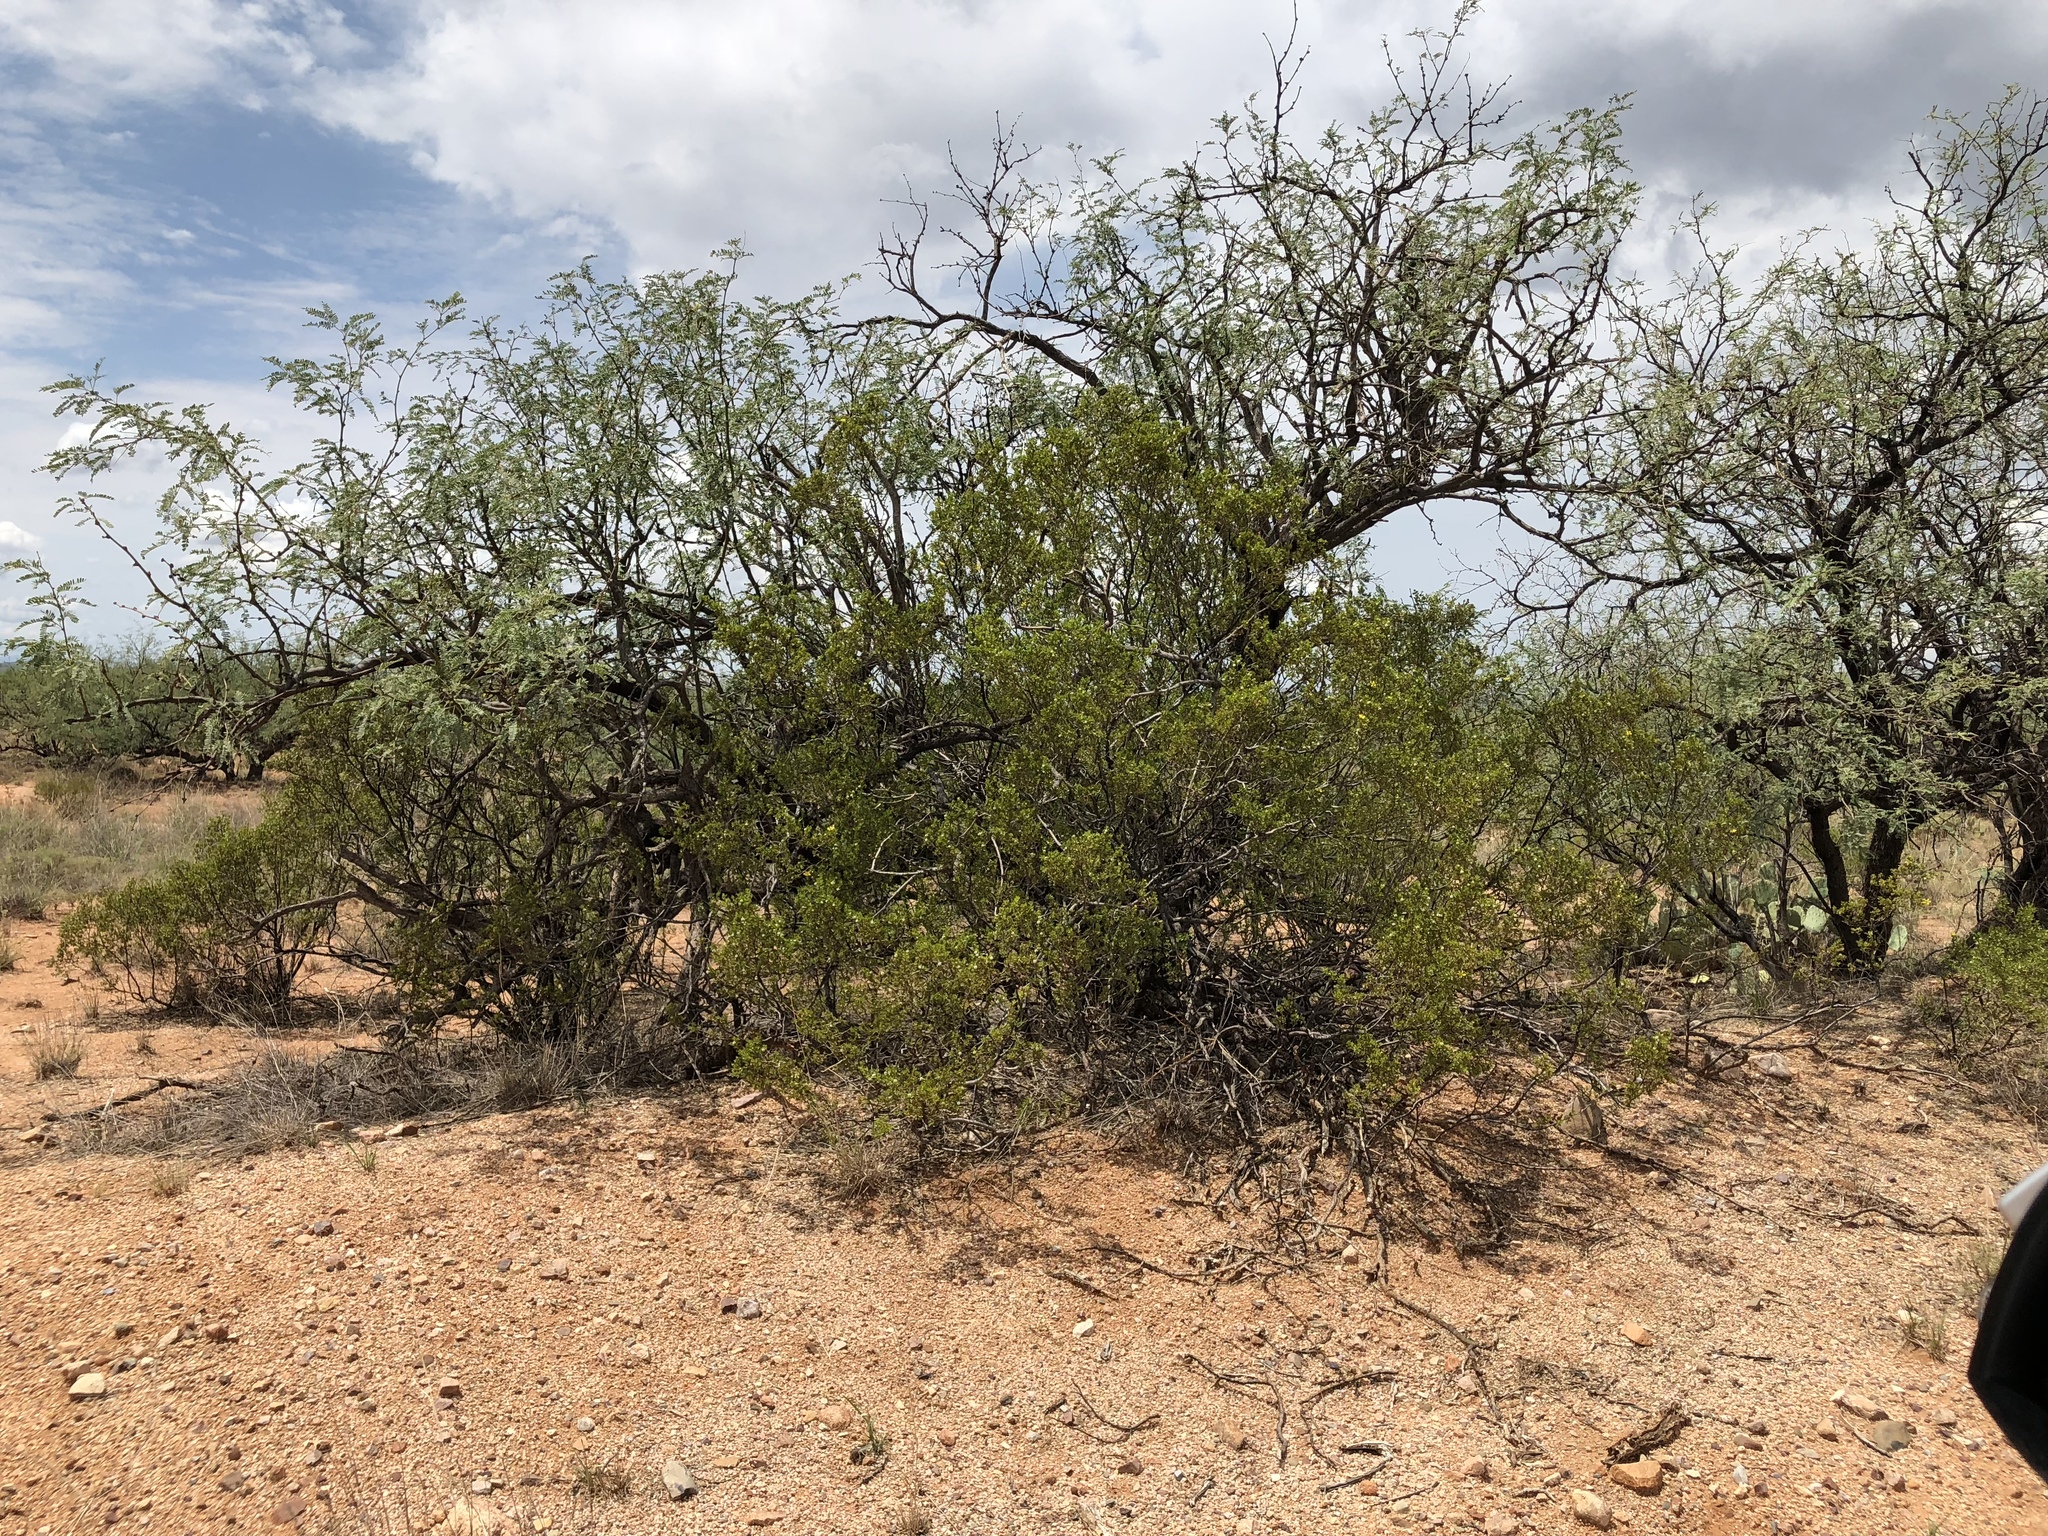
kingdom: Plantae
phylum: Tracheophyta
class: Magnoliopsida
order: Fabales
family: Fabaceae
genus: Prosopis
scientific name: Prosopis velutina
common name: Velvet mesquite
